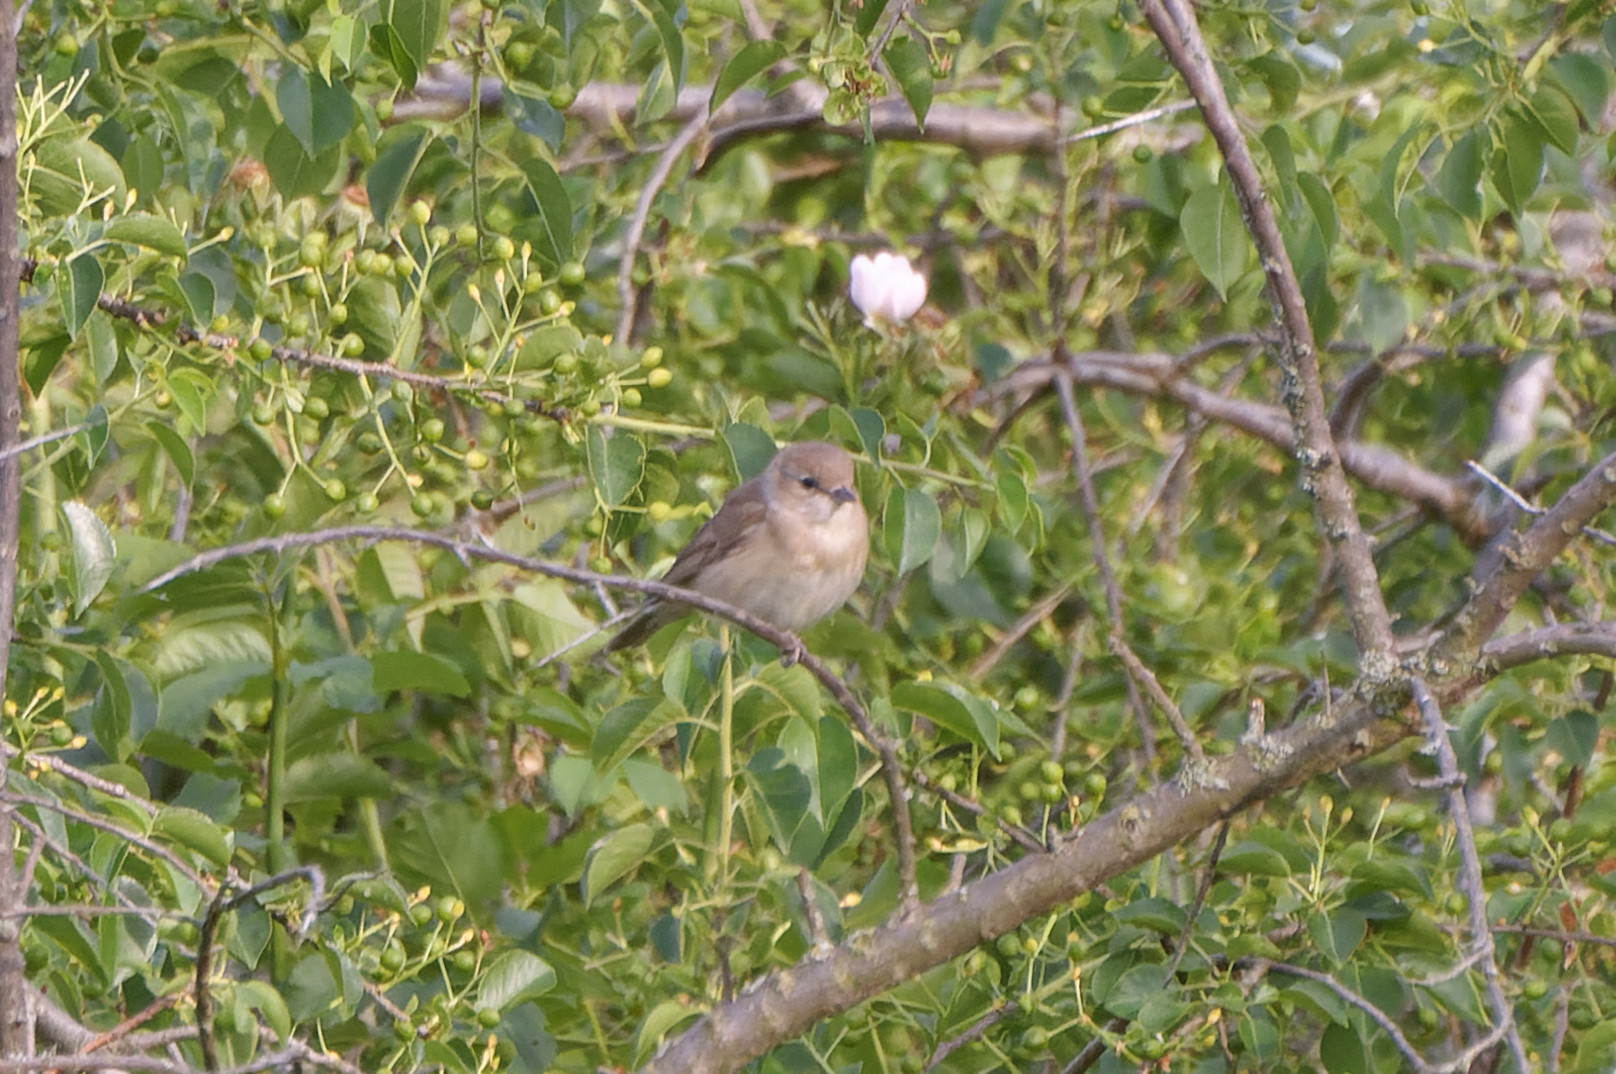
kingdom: Animalia
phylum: Chordata
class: Aves
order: Passeriformes
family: Sylviidae
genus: Sylvia
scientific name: Sylvia borin
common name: Garden warbler
